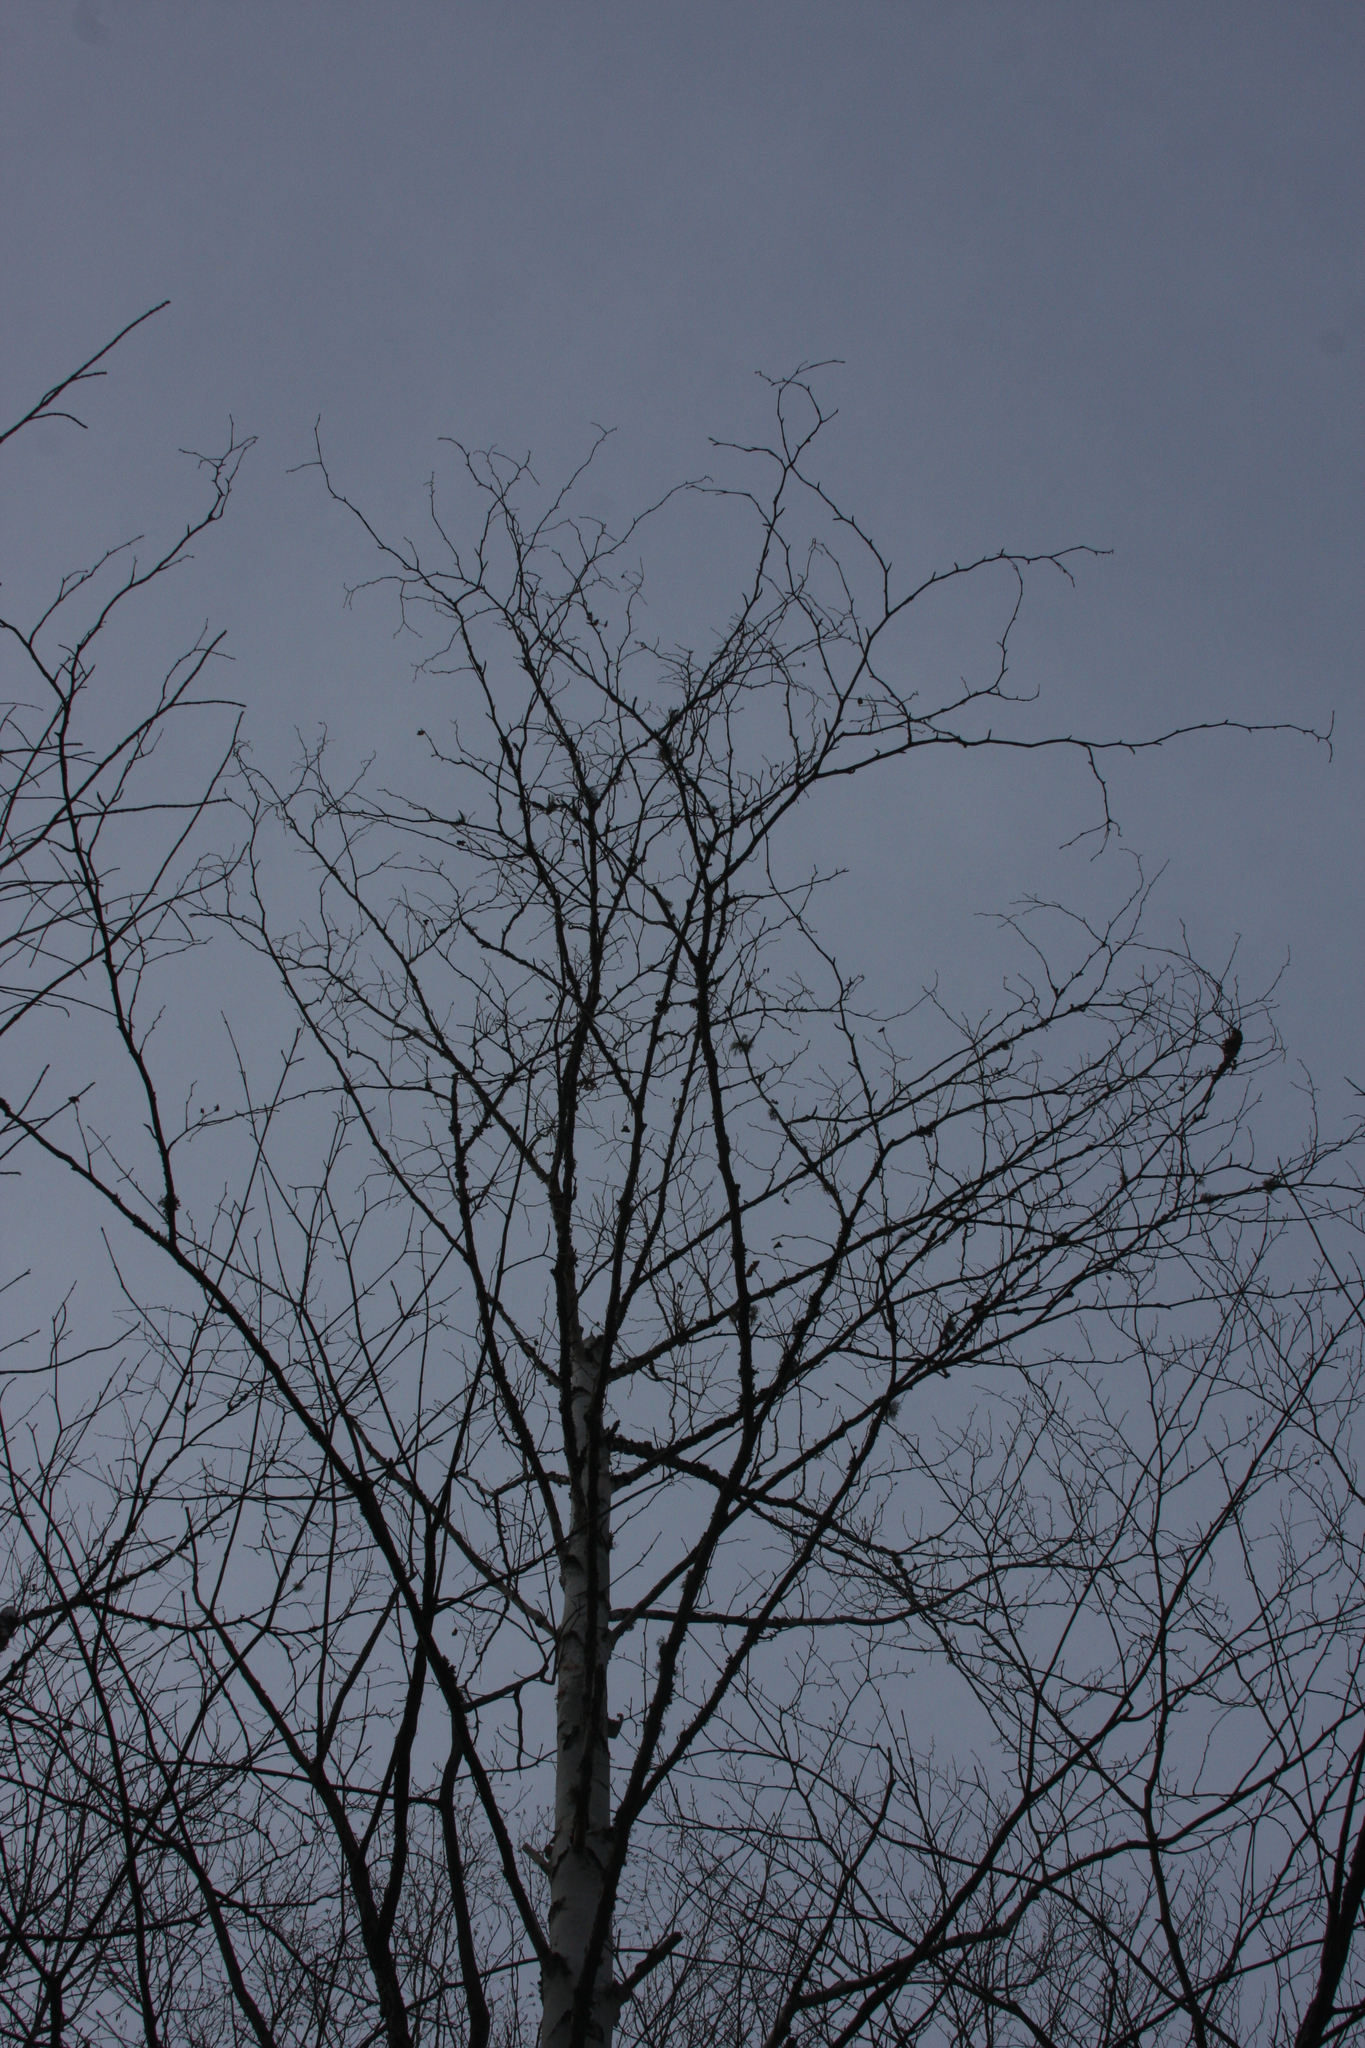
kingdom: Plantae
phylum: Tracheophyta
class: Magnoliopsida
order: Fagales
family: Betulaceae
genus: Betula
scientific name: Betula papyrifera
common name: Paper birch
